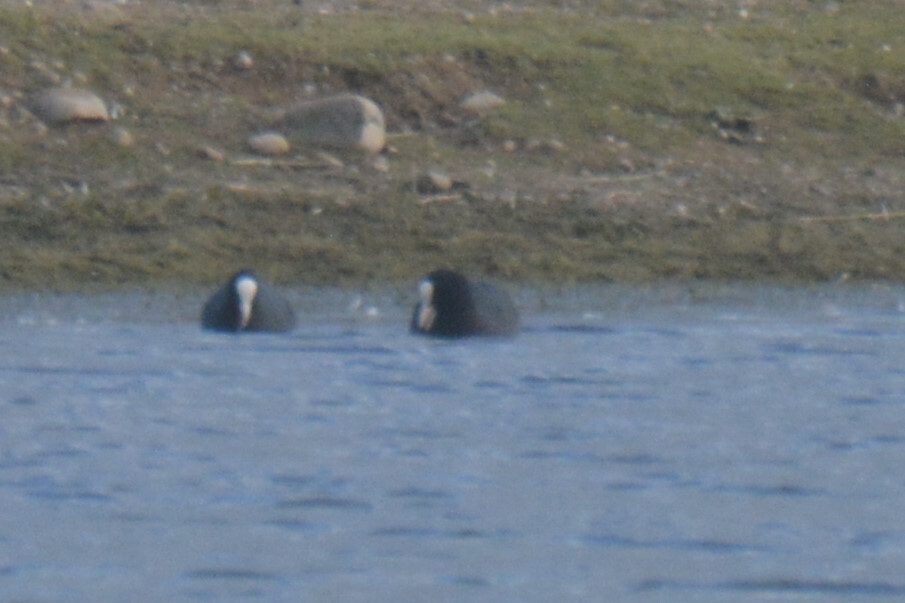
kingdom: Animalia
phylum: Chordata
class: Aves
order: Gruiformes
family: Rallidae
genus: Fulica
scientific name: Fulica atra
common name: Eurasian coot
